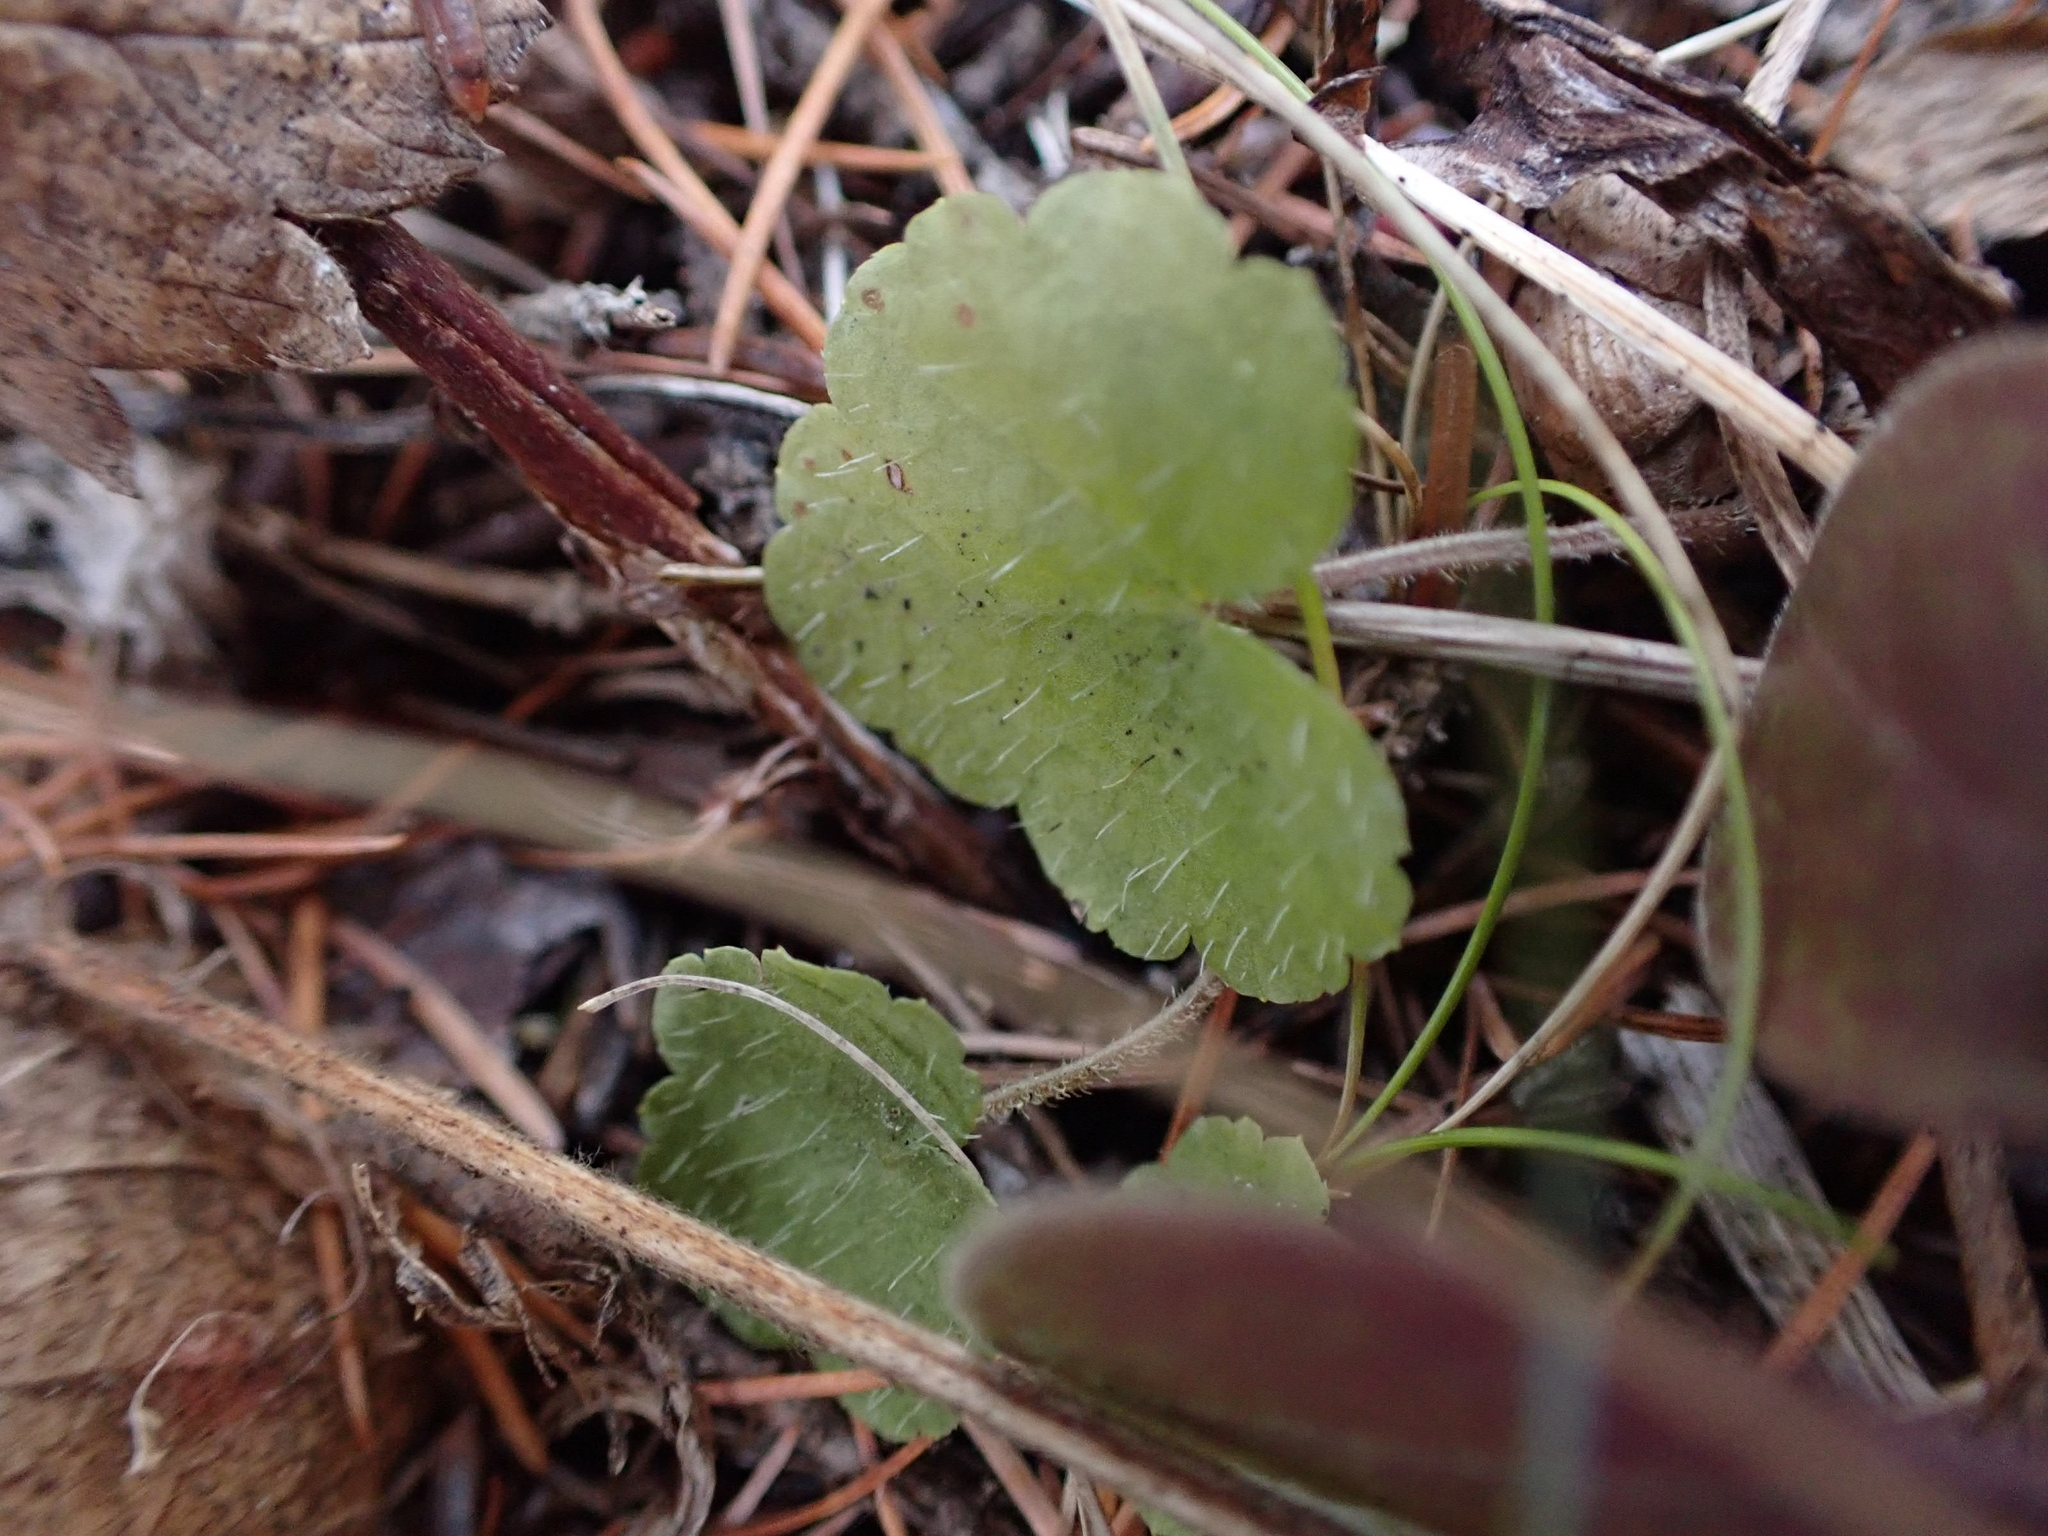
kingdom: Plantae
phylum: Tracheophyta
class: Magnoliopsida
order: Saxifragales
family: Saxifragaceae
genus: Mitella
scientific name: Mitella nuda
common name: Bare-stemmed bishop's-cap
